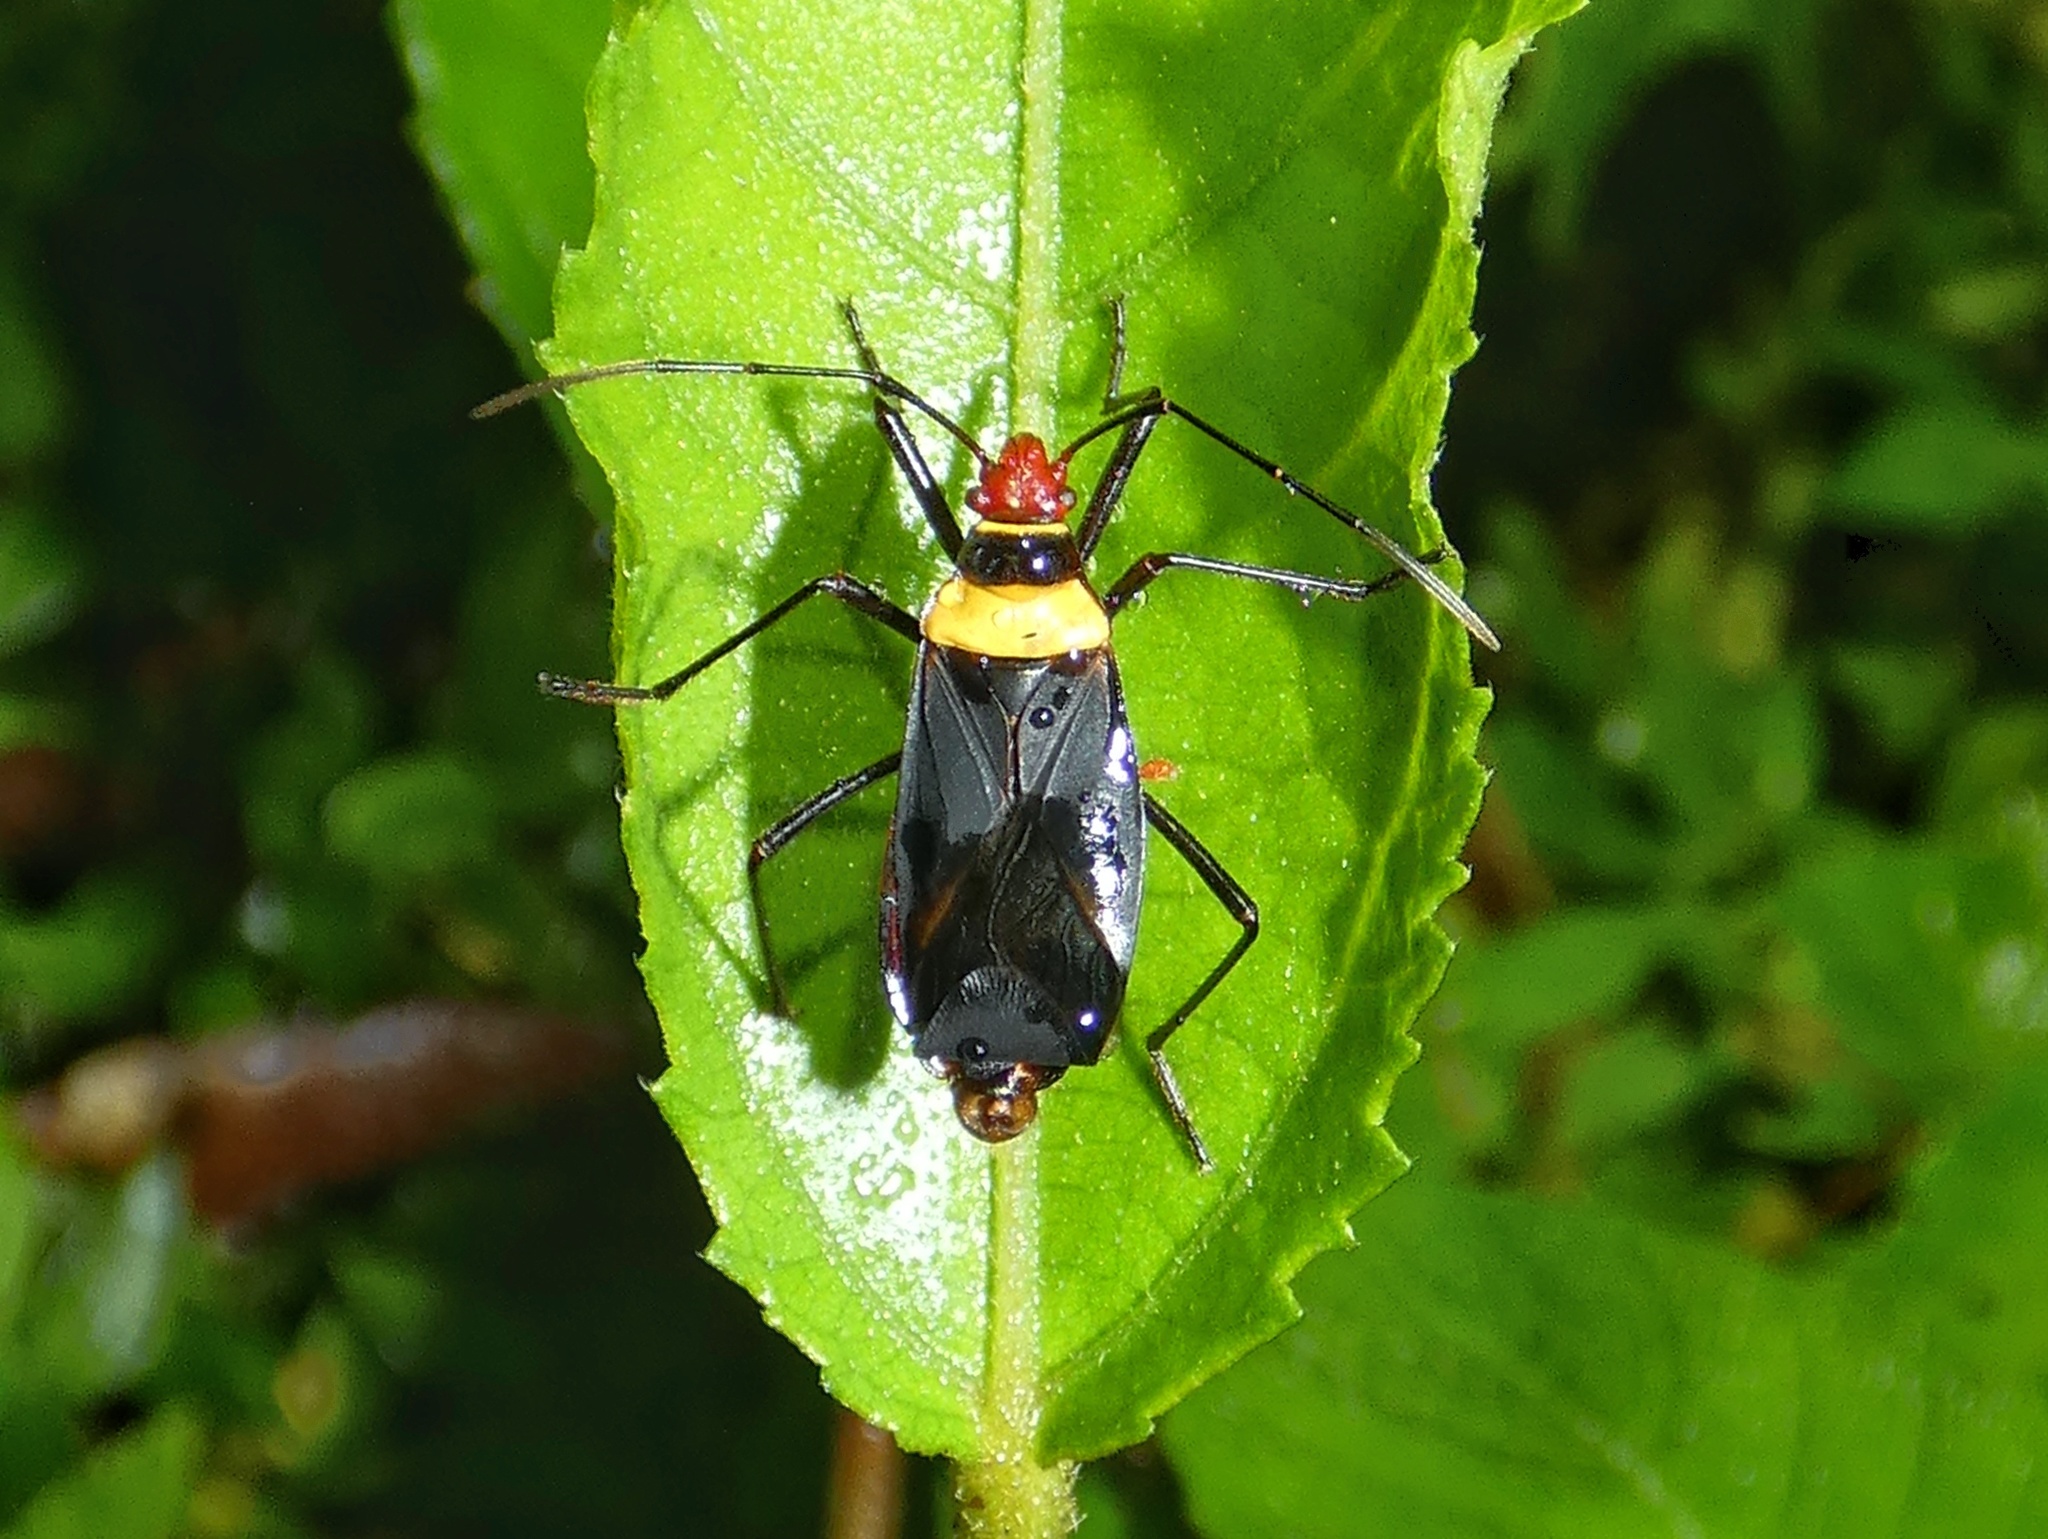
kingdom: Animalia
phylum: Arthropoda
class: Insecta
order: Hemiptera
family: Pyrrhocoridae
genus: Dysdercus
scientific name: Dysdercus
